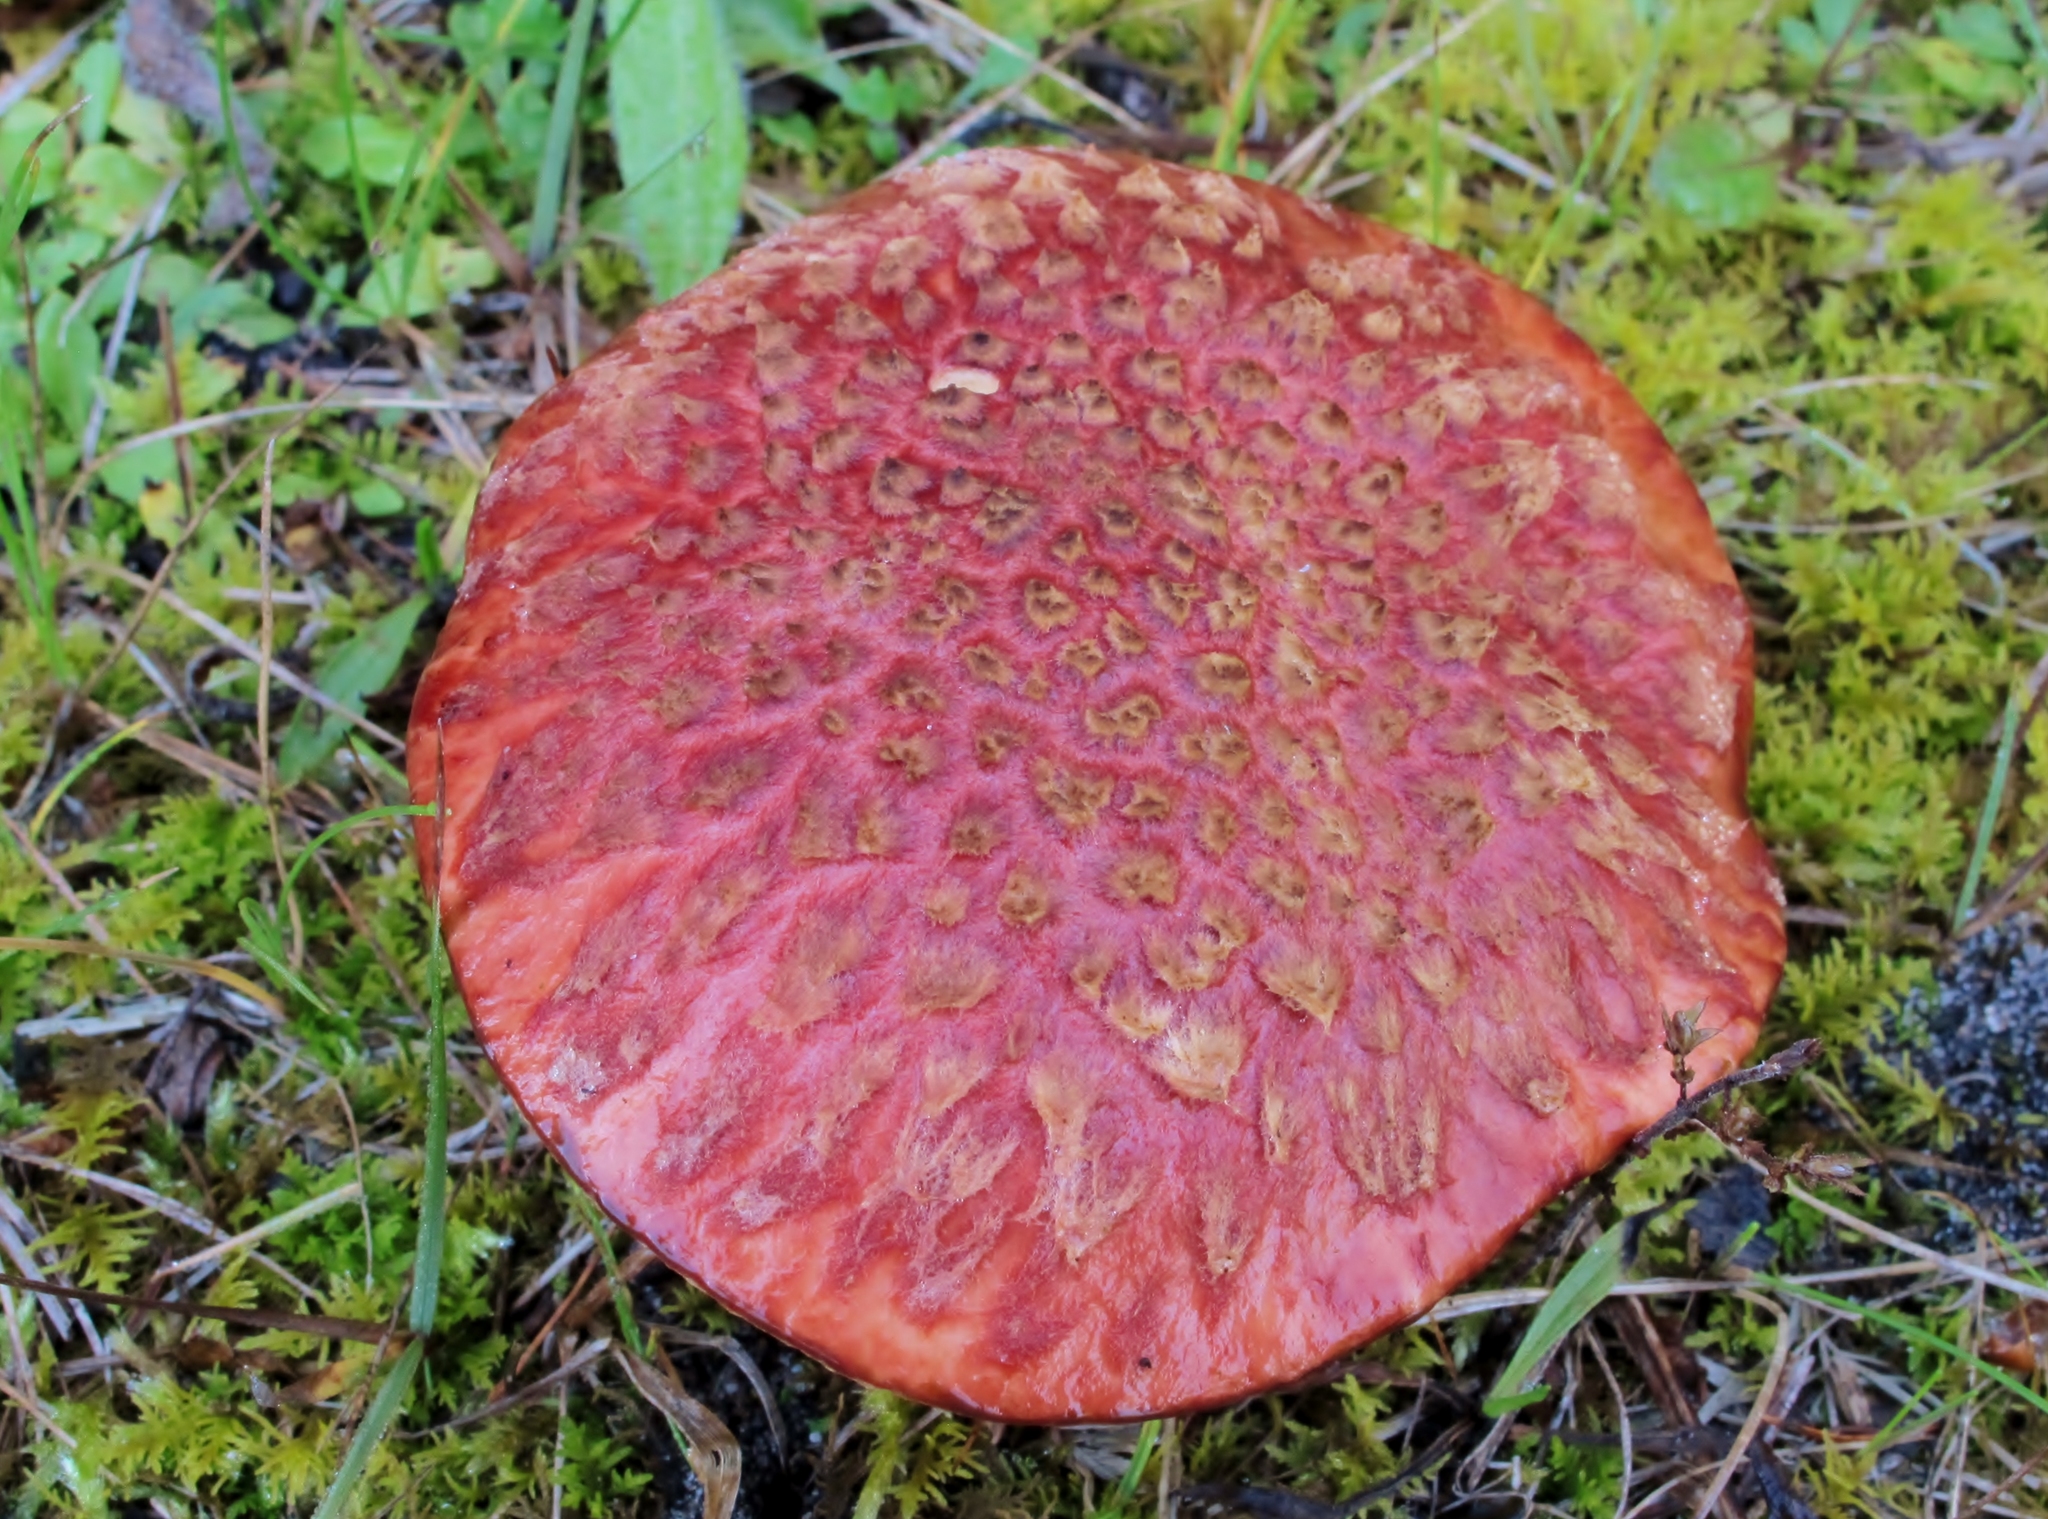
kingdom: Fungi
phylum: Basidiomycota
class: Agaricomycetes
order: Boletales
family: Suillaceae
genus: Boletinus
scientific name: Boletinus spectabilis
